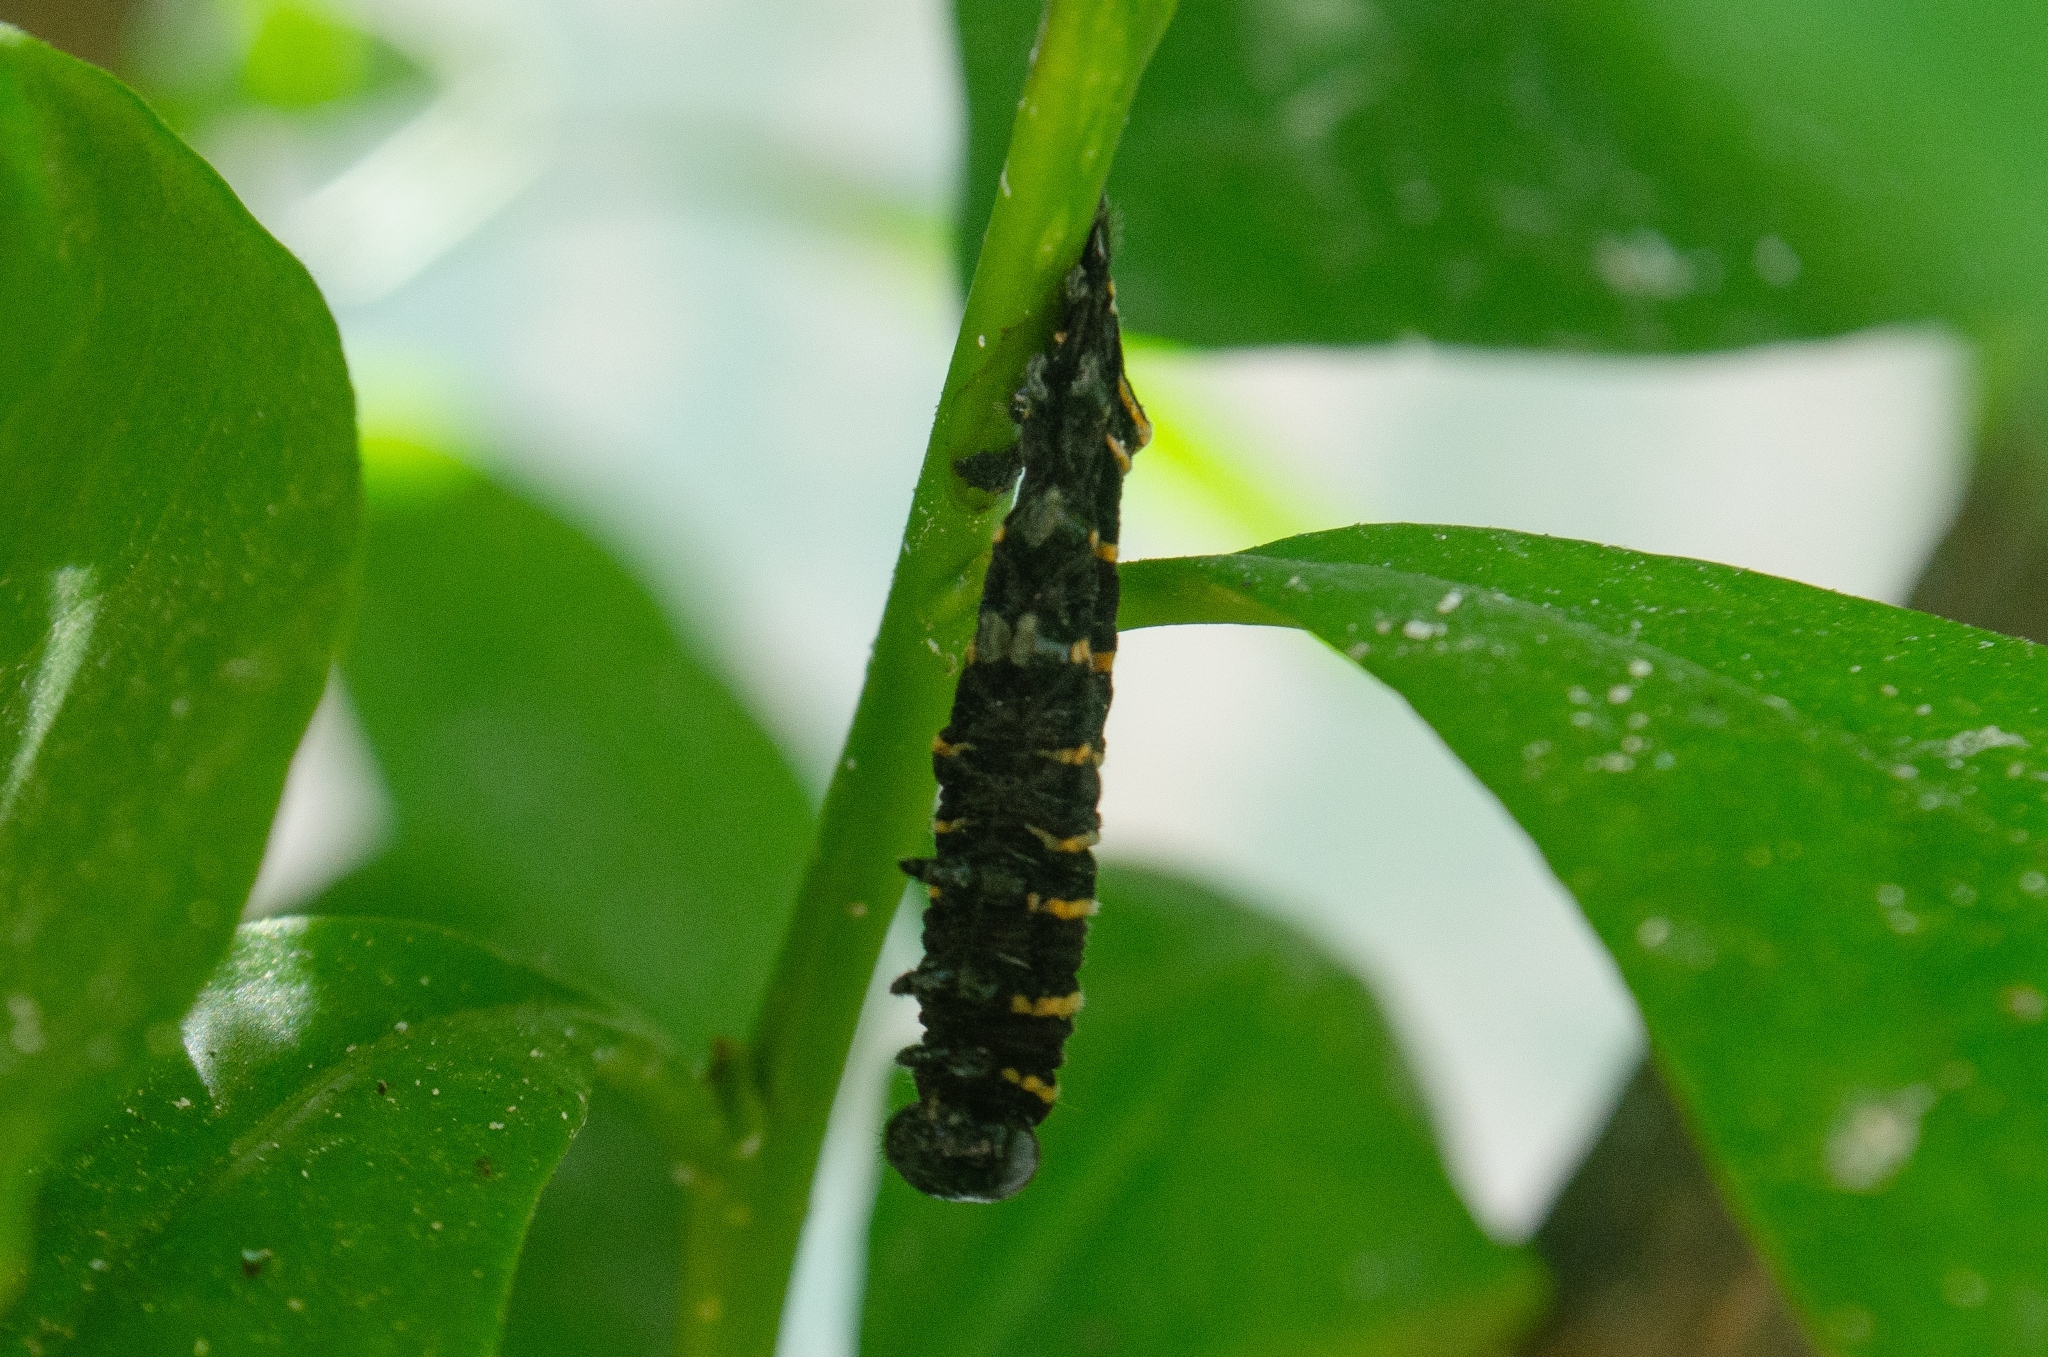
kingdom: Animalia
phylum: Arthropoda
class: Insecta
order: Lepidoptera
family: Nymphalidae
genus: Methona
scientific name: Methona themisto
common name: Themisto amberwing
